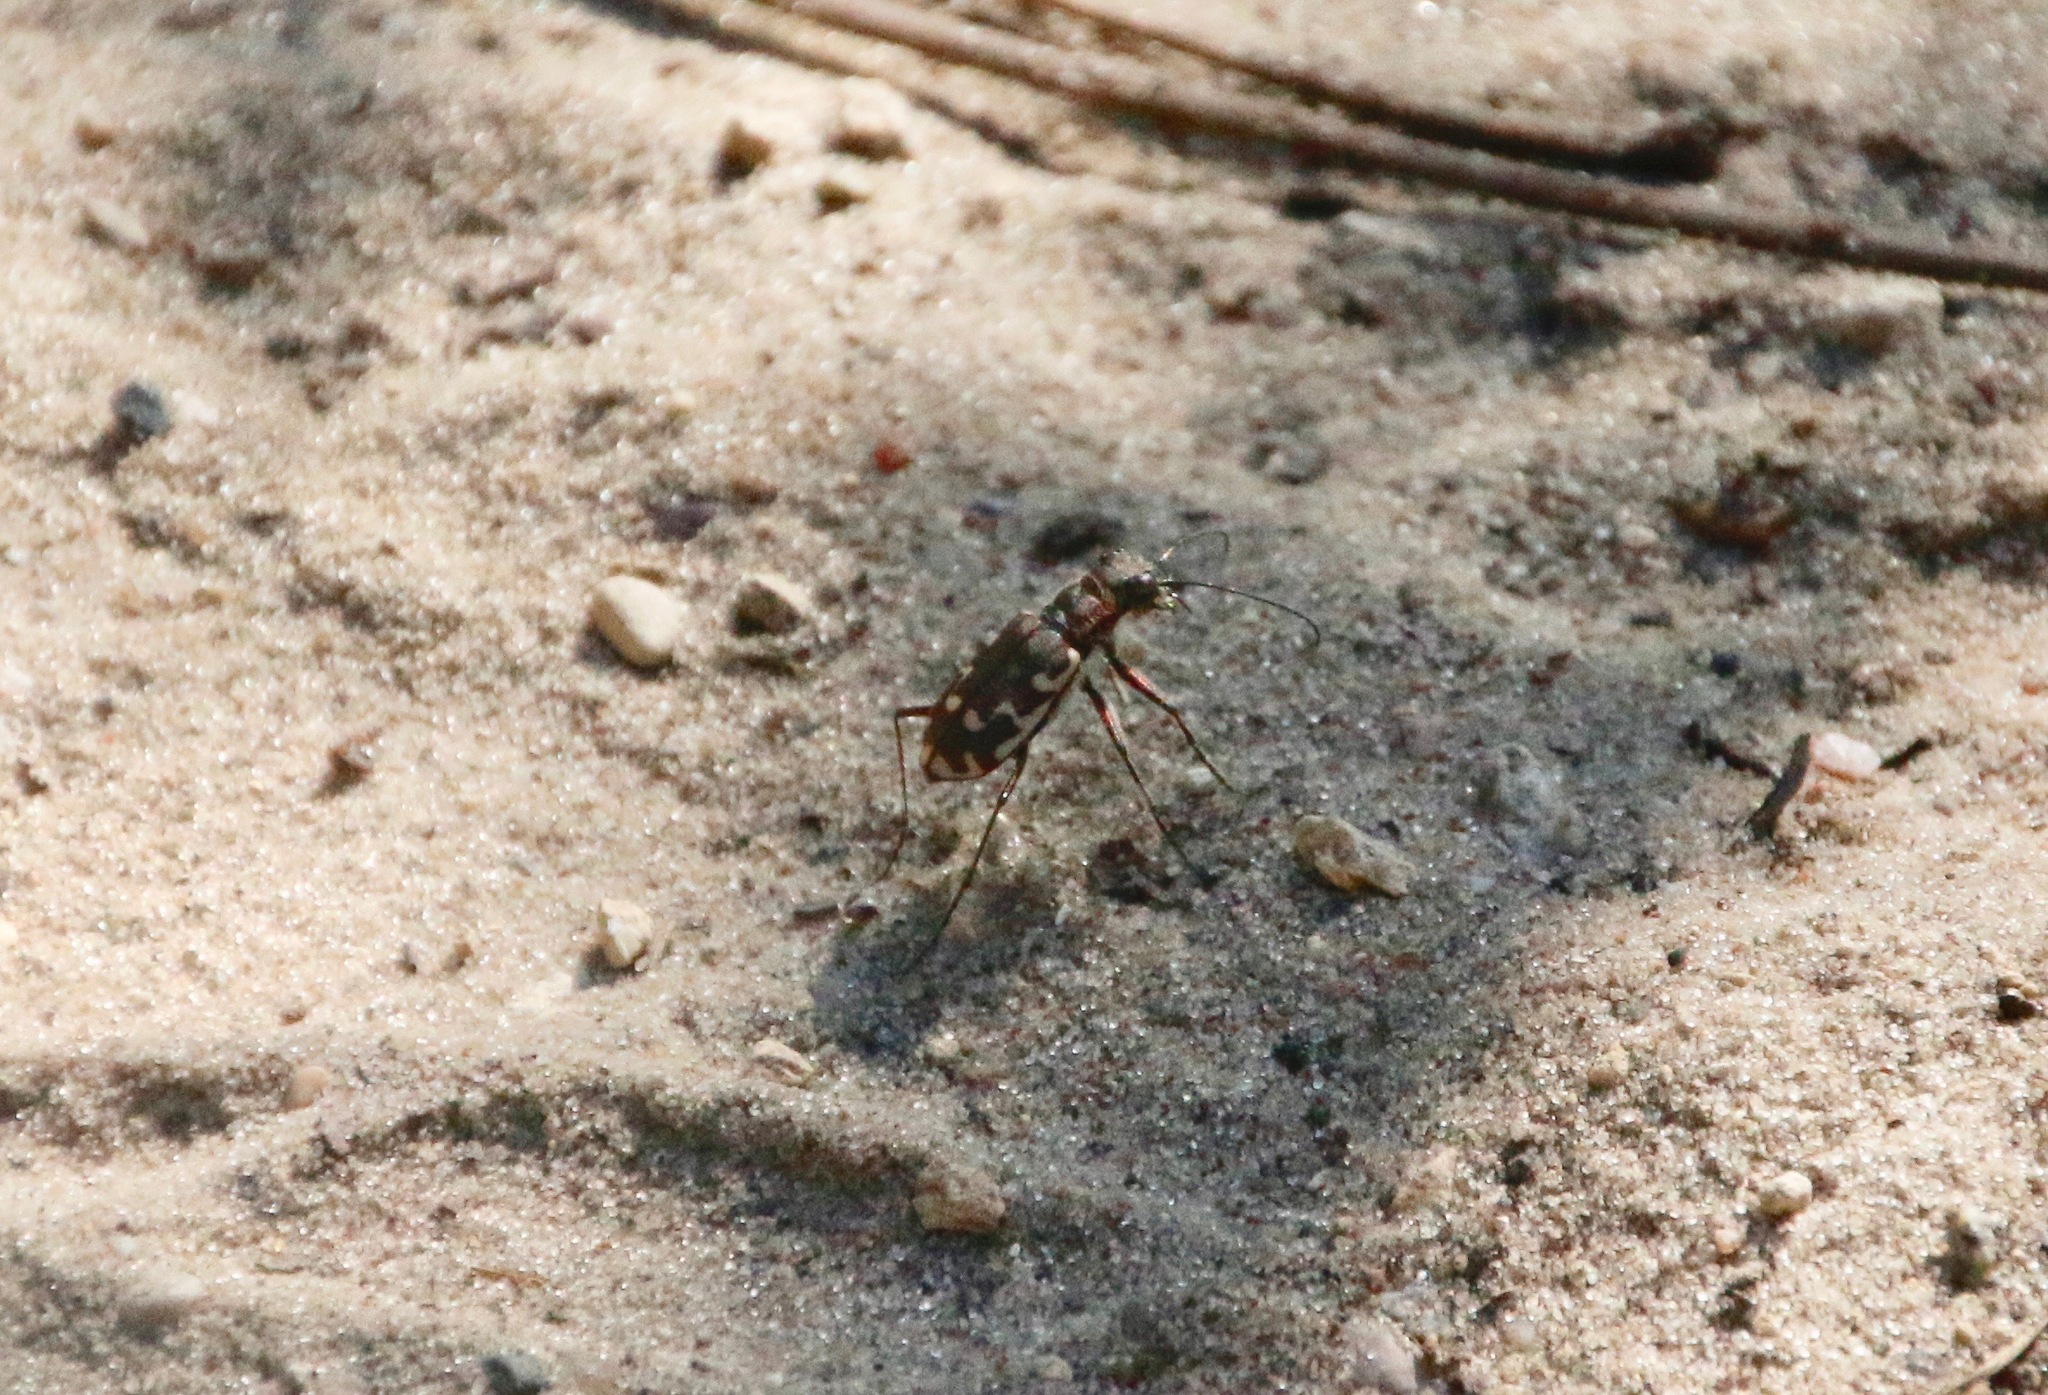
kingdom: Animalia
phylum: Arthropoda
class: Insecta
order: Coleoptera
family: Carabidae
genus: Cicindela
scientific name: Cicindela repanda
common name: Bronzed tiger beetle
